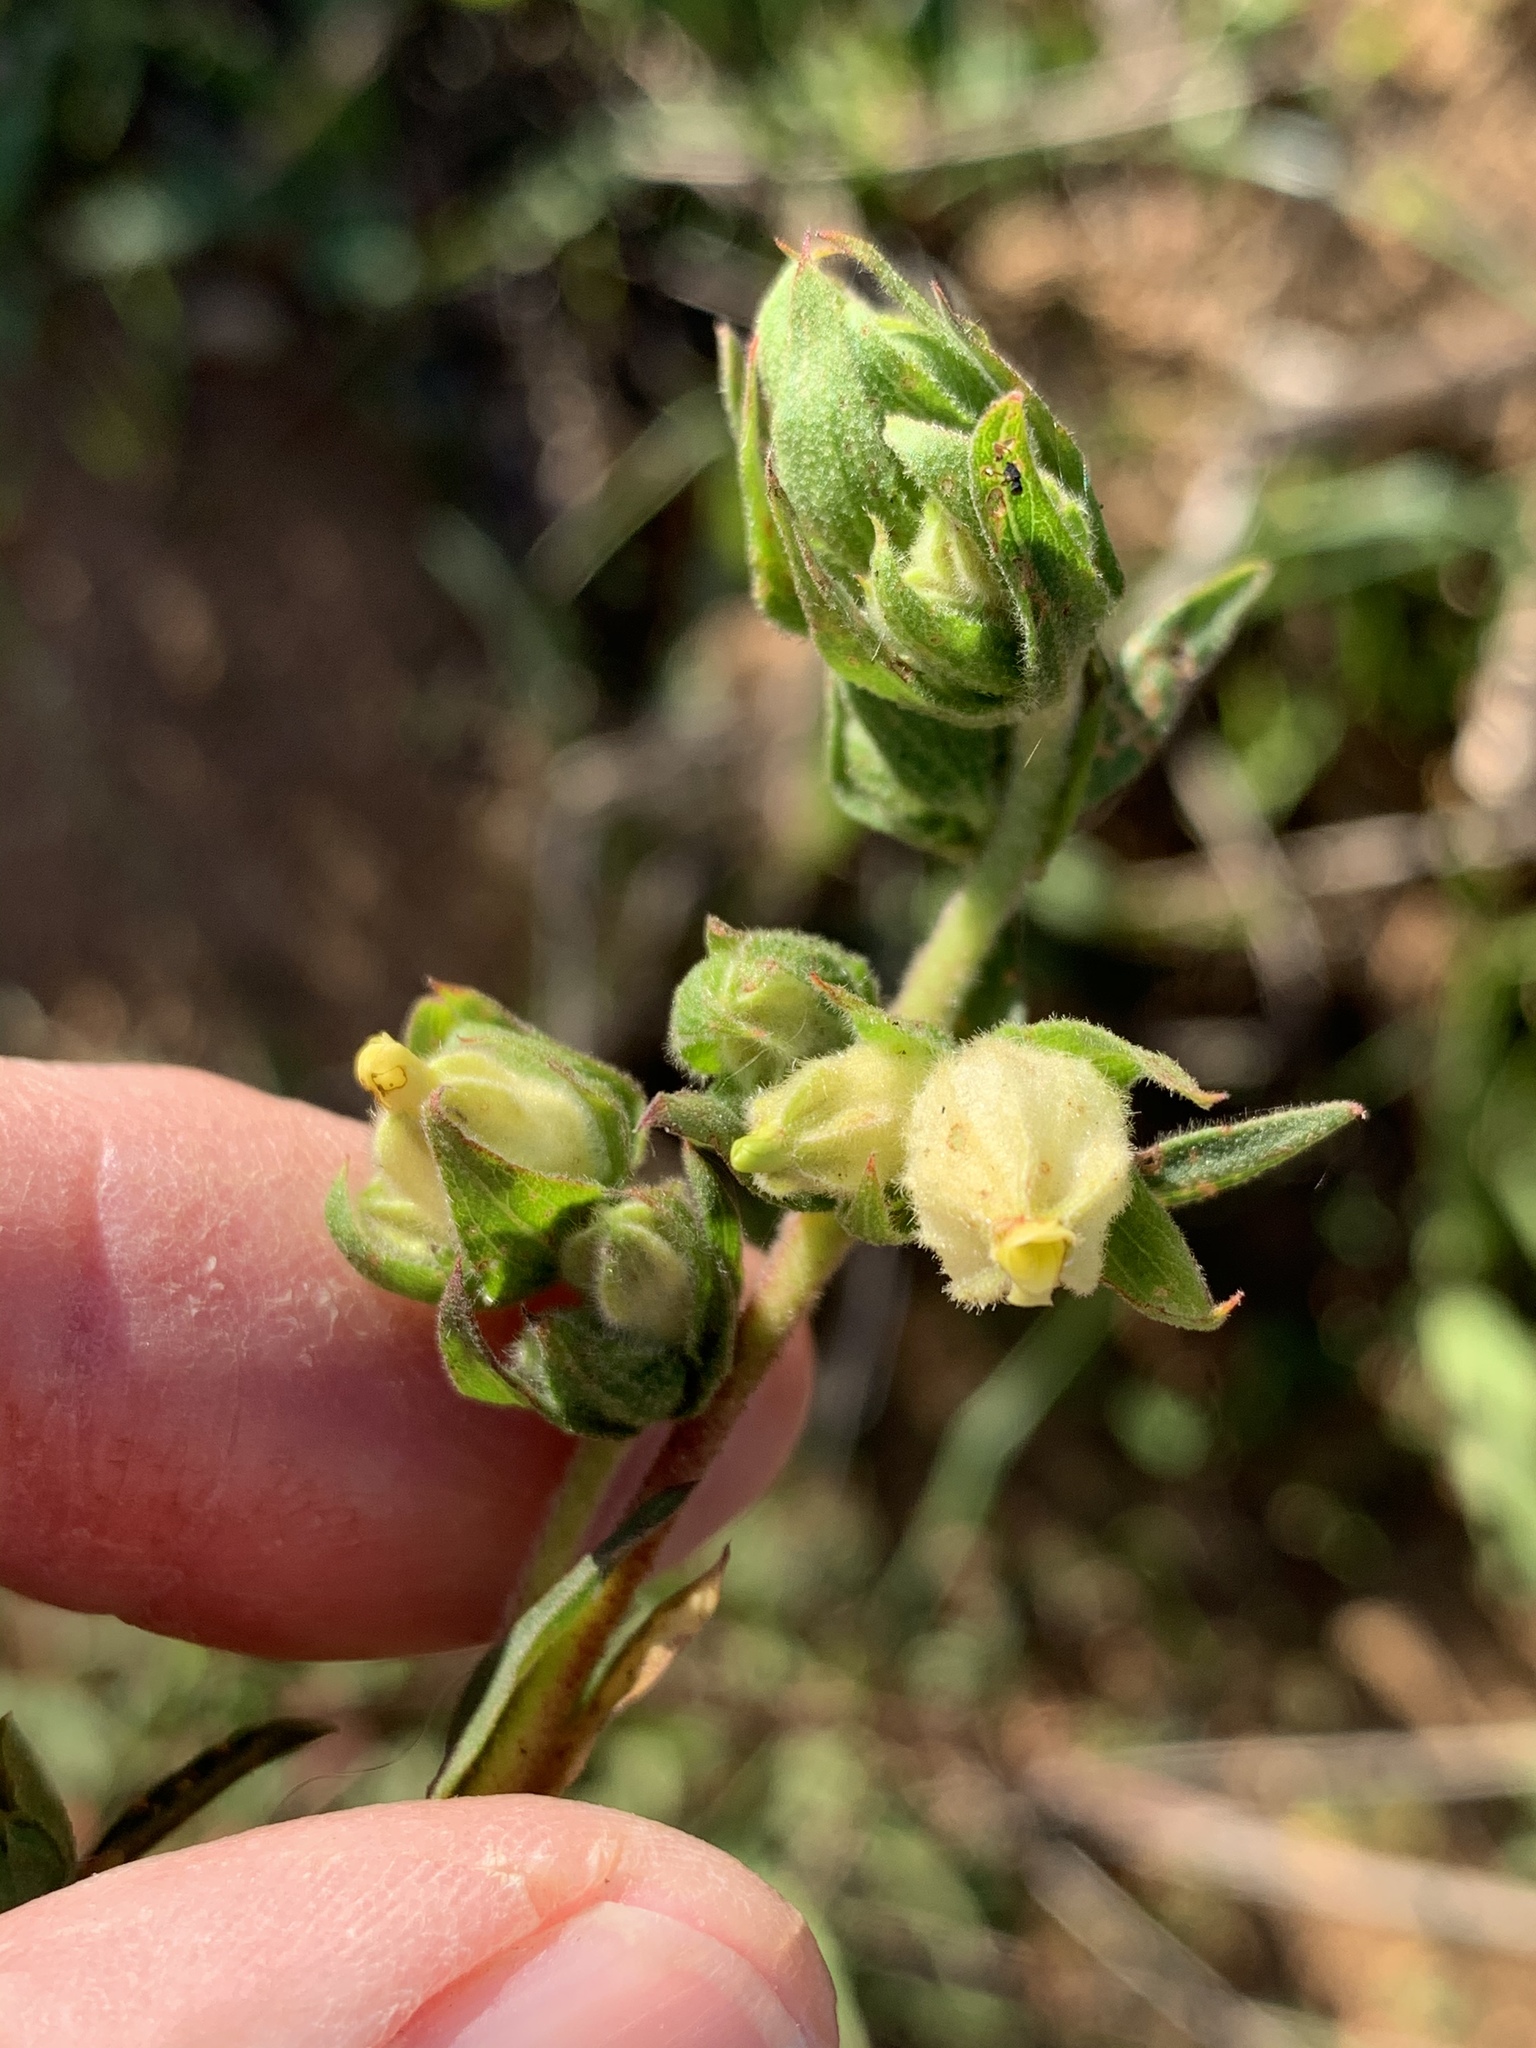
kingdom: Plantae
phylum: Tracheophyta
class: Magnoliopsida
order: Malvales
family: Malvaceae
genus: Hermannia
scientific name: Hermannia hyssopifolia
